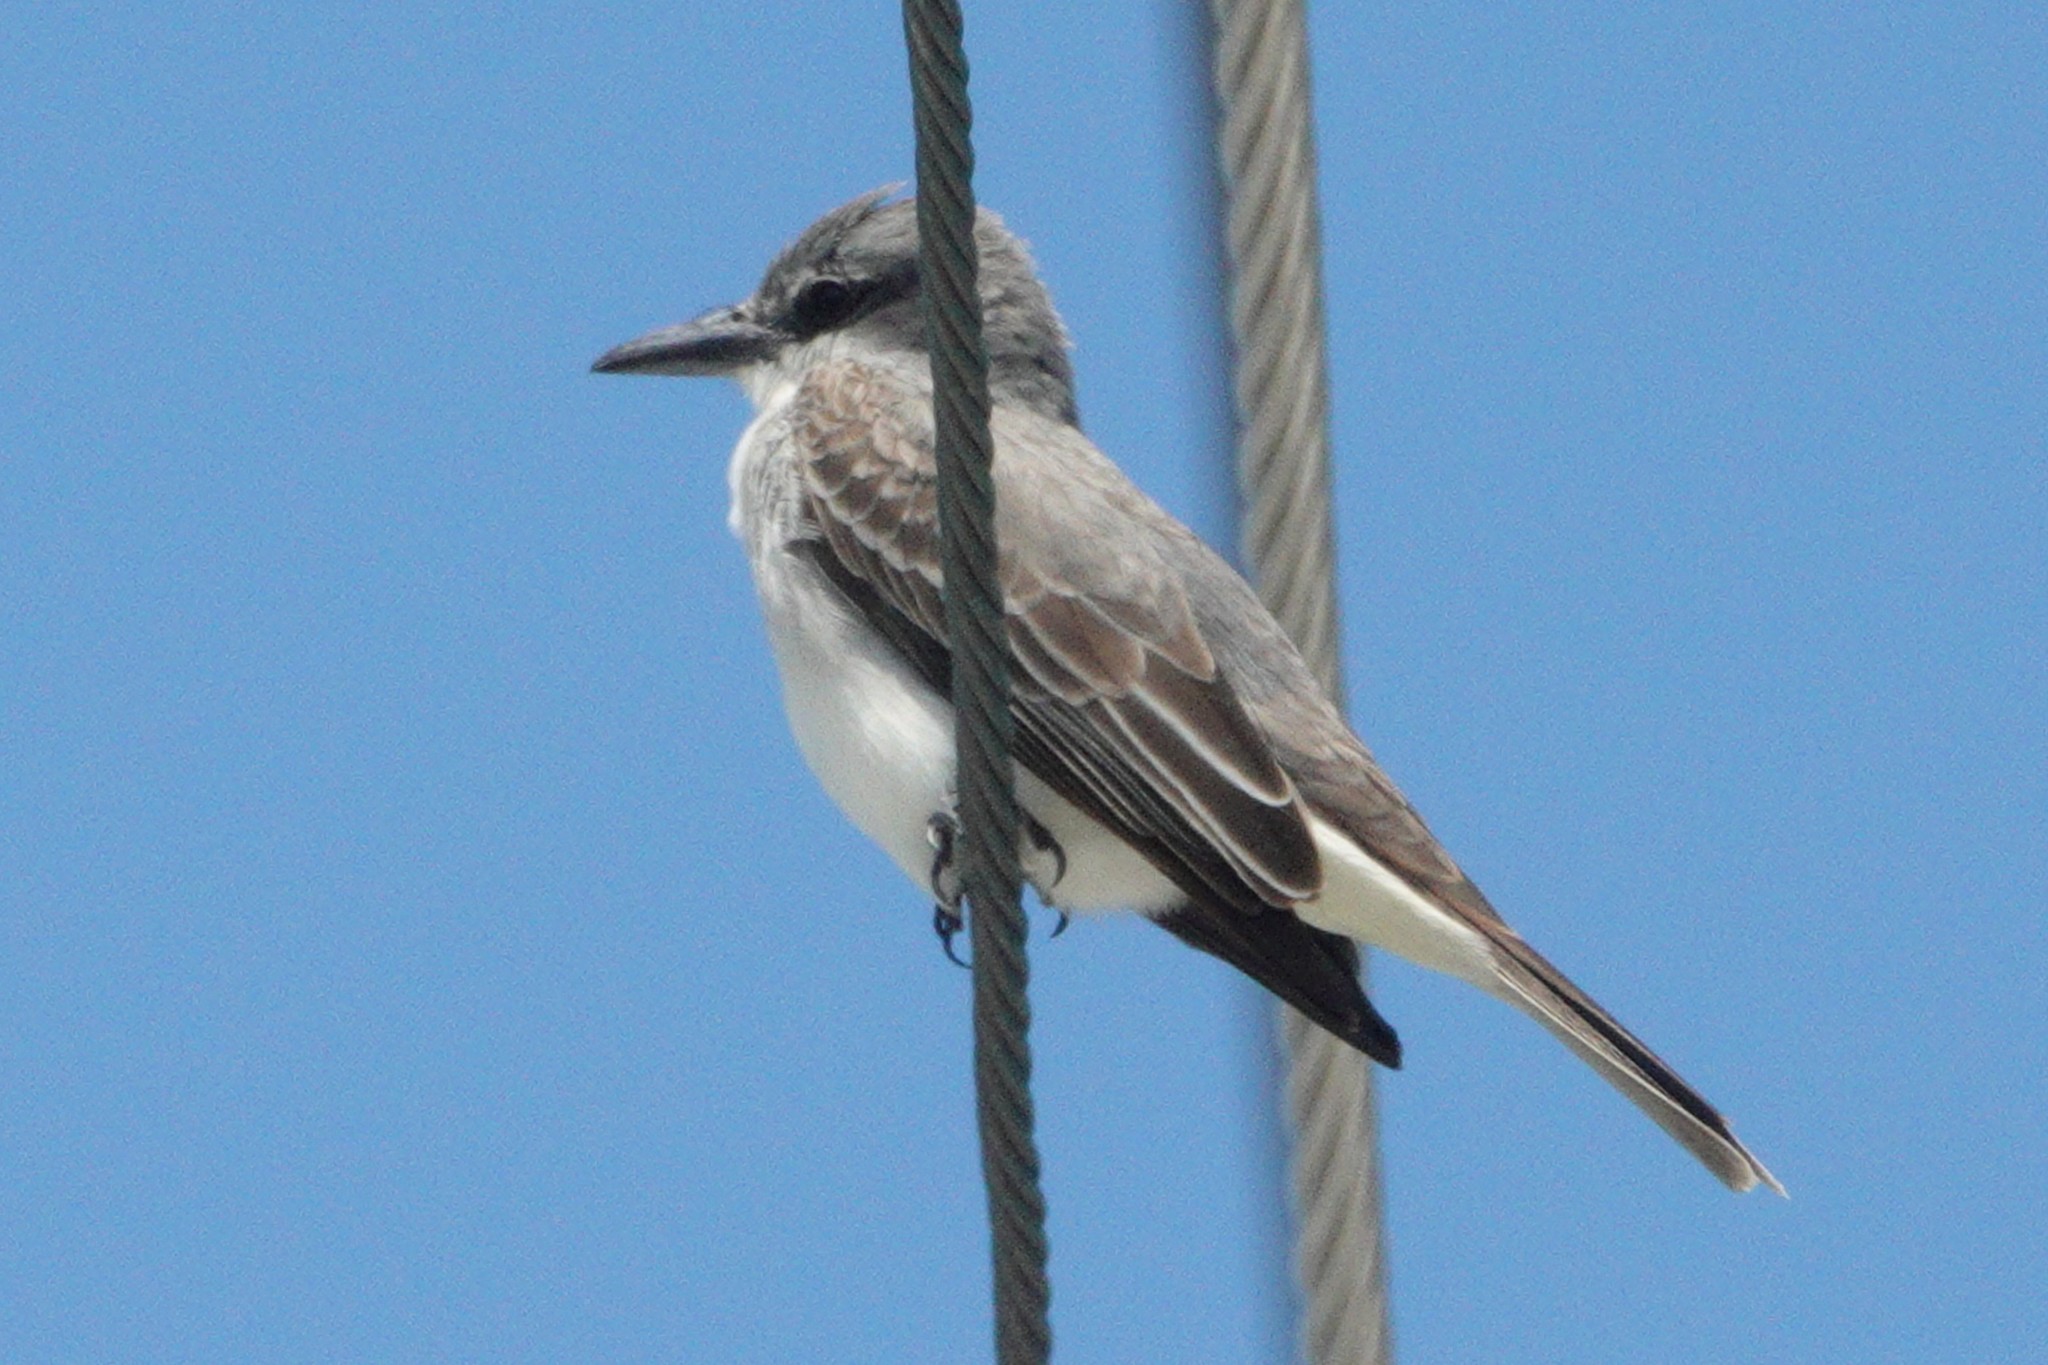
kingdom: Animalia
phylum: Chordata
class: Aves
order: Passeriformes
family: Tyrannidae
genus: Tyrannus
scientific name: Tyrannus dominicensis
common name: Gray kingbird
